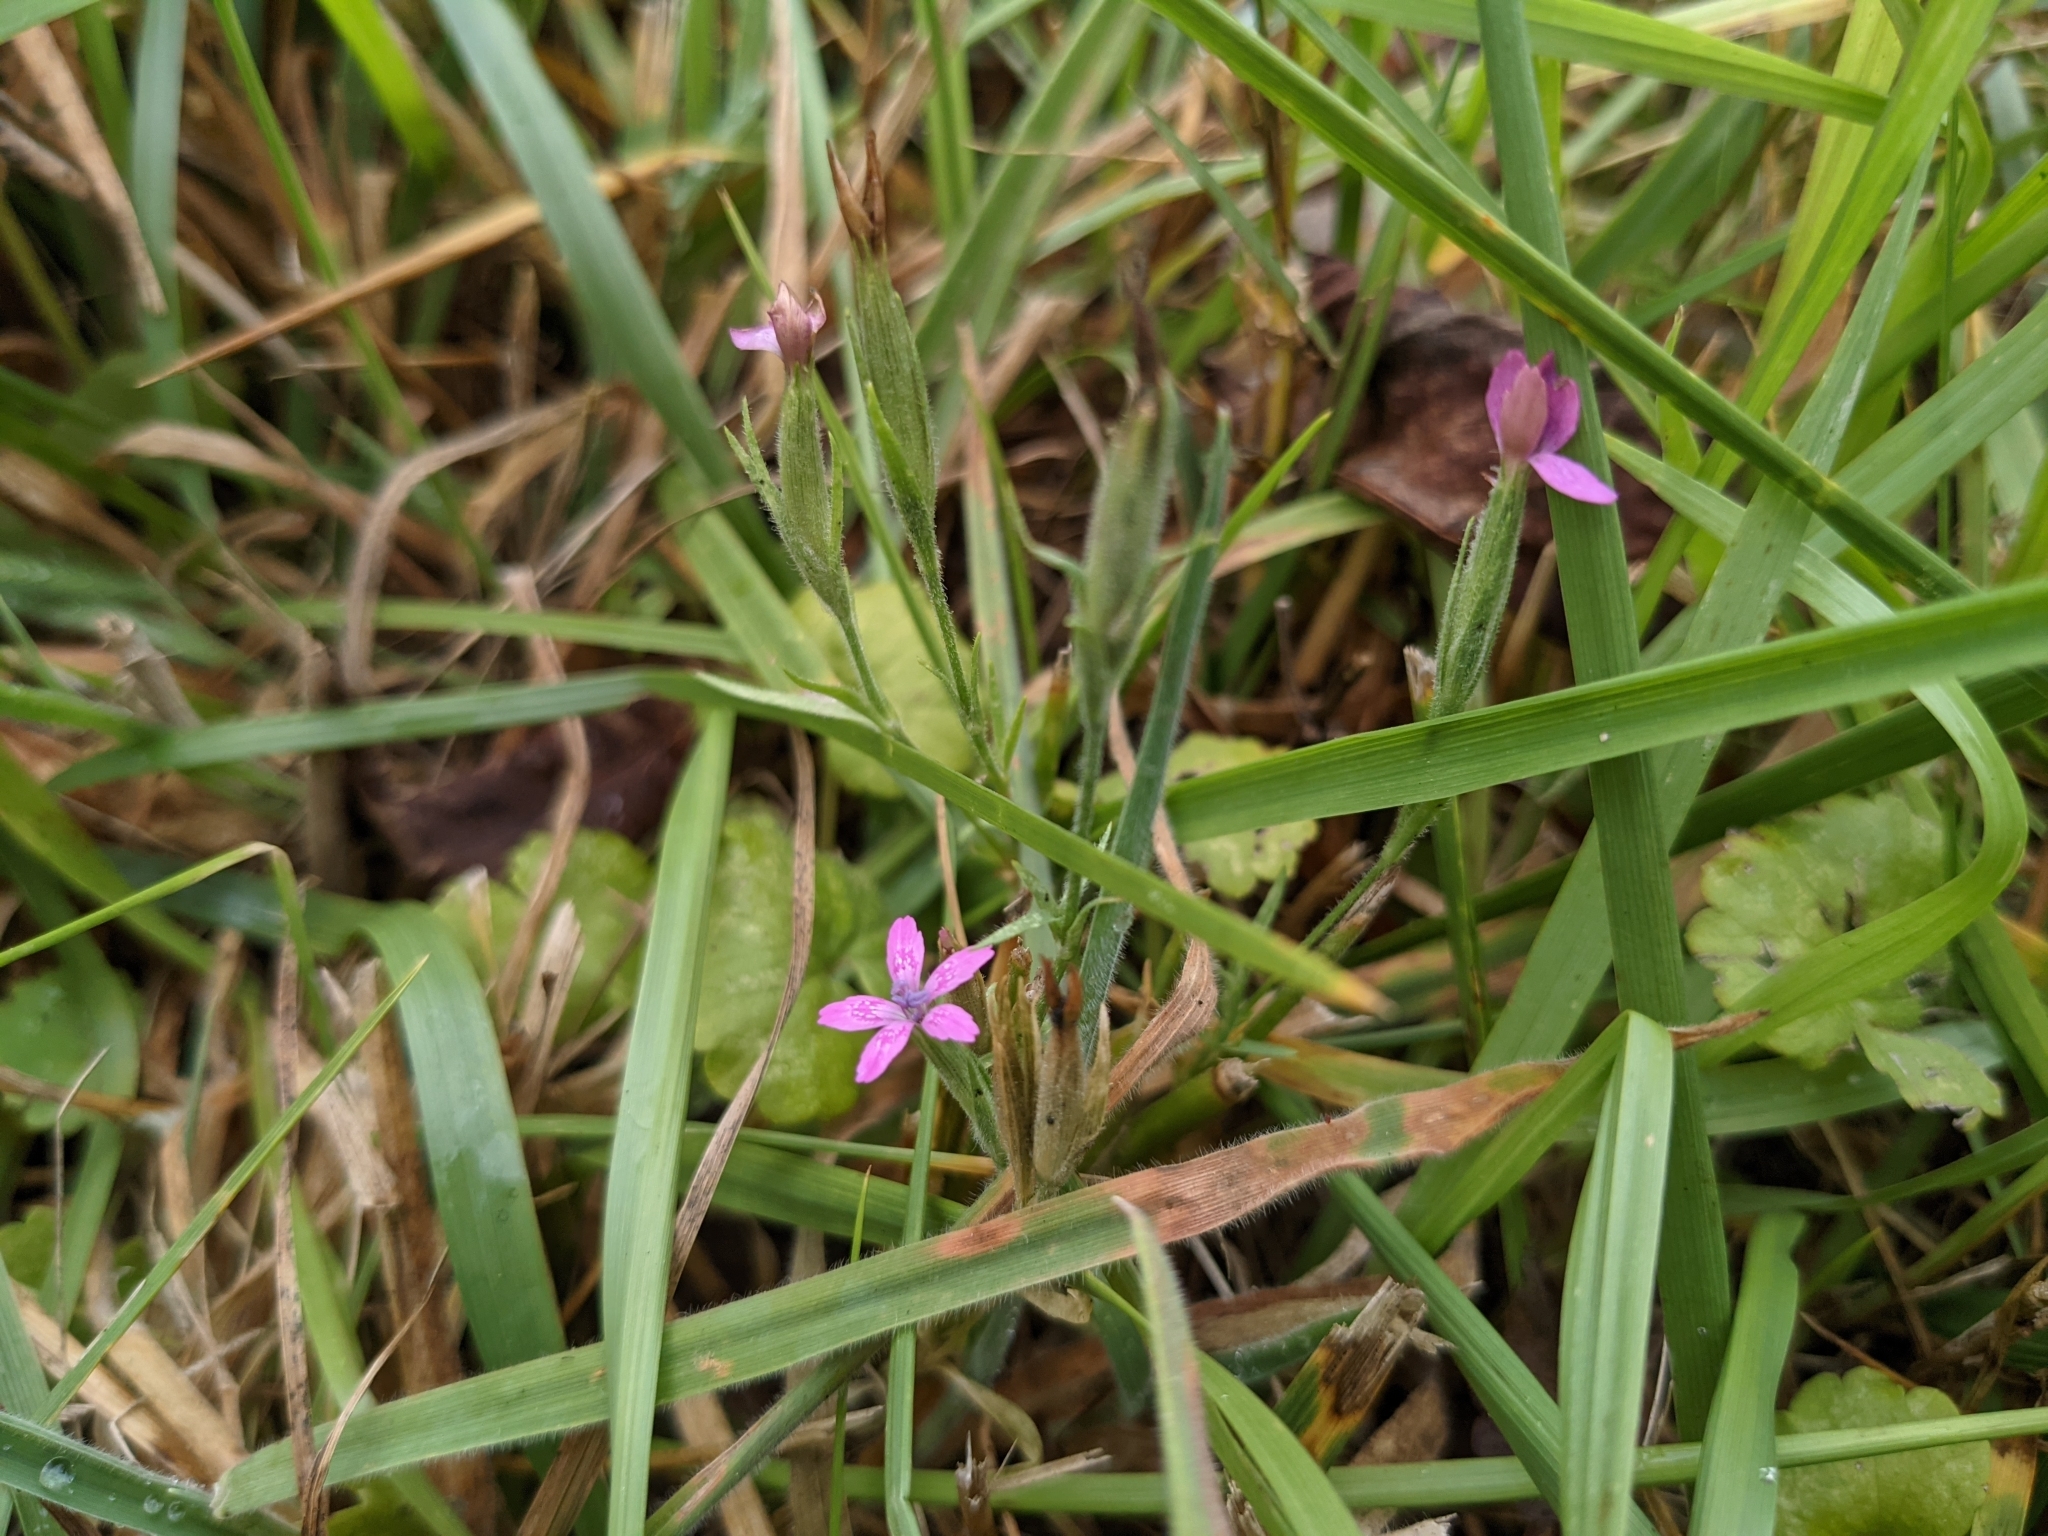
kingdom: Plantae
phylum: Tracheophyta
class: Magnoliopsida
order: Caryophyllales
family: Caryophyllaceae
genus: Dianthus
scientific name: Dianthus armeria
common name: Deptford pink
